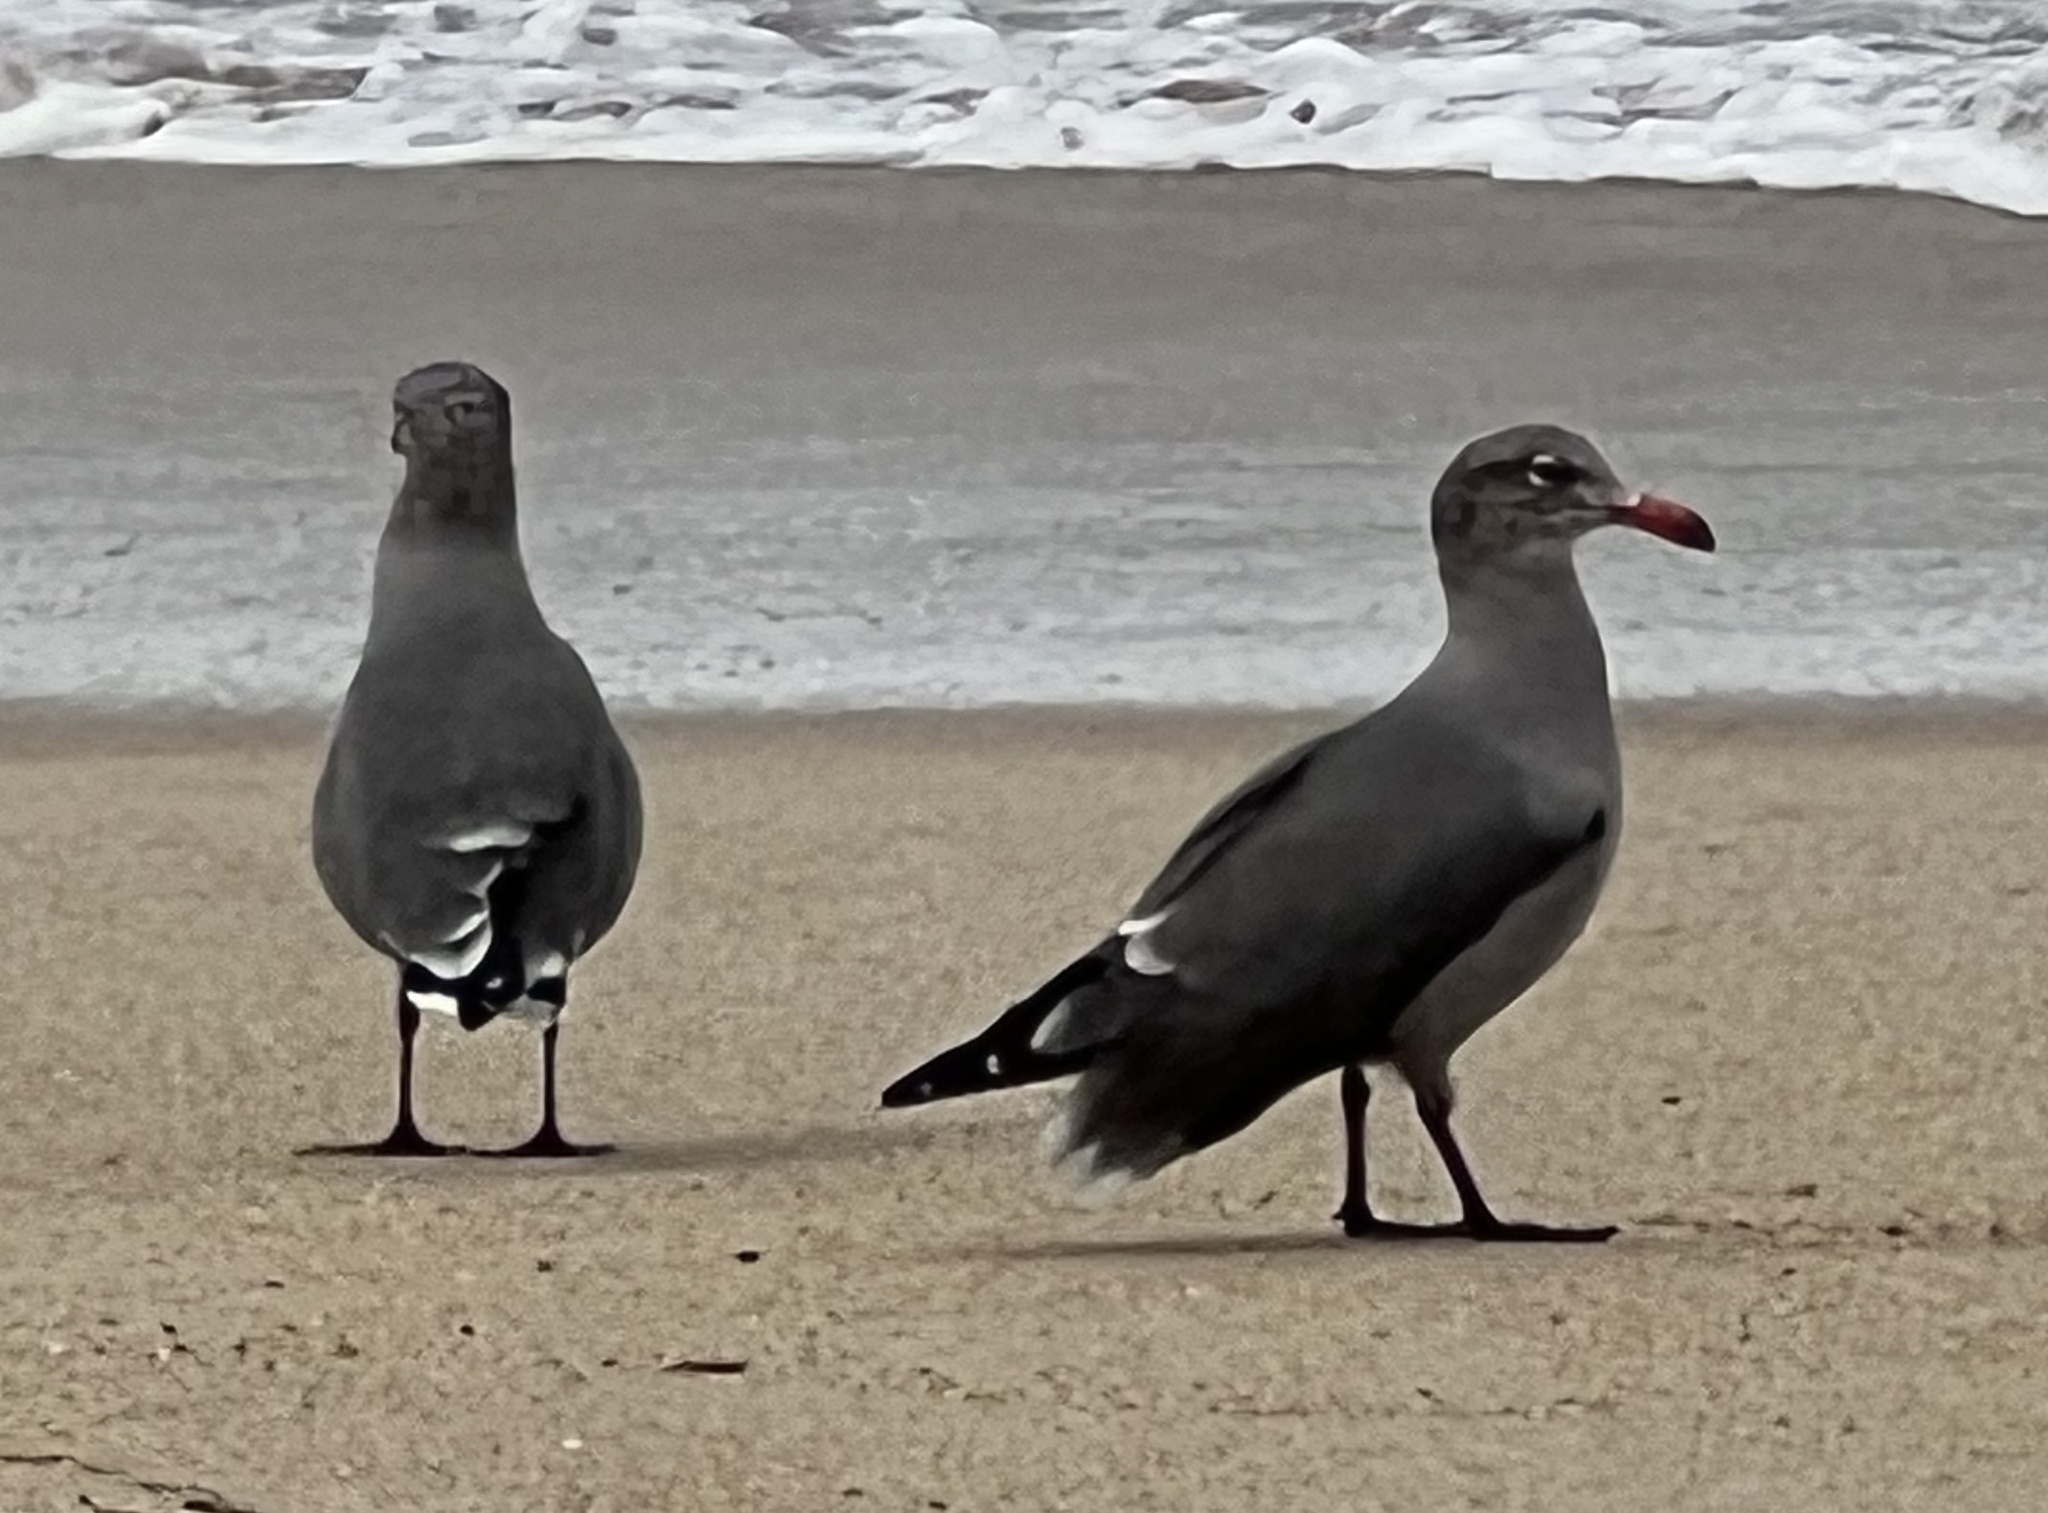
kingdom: Animalia
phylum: Chordata
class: Aves
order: Charadriiformes
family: Laridae
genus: Larus
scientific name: Larus heermanni
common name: Heermann's gull
